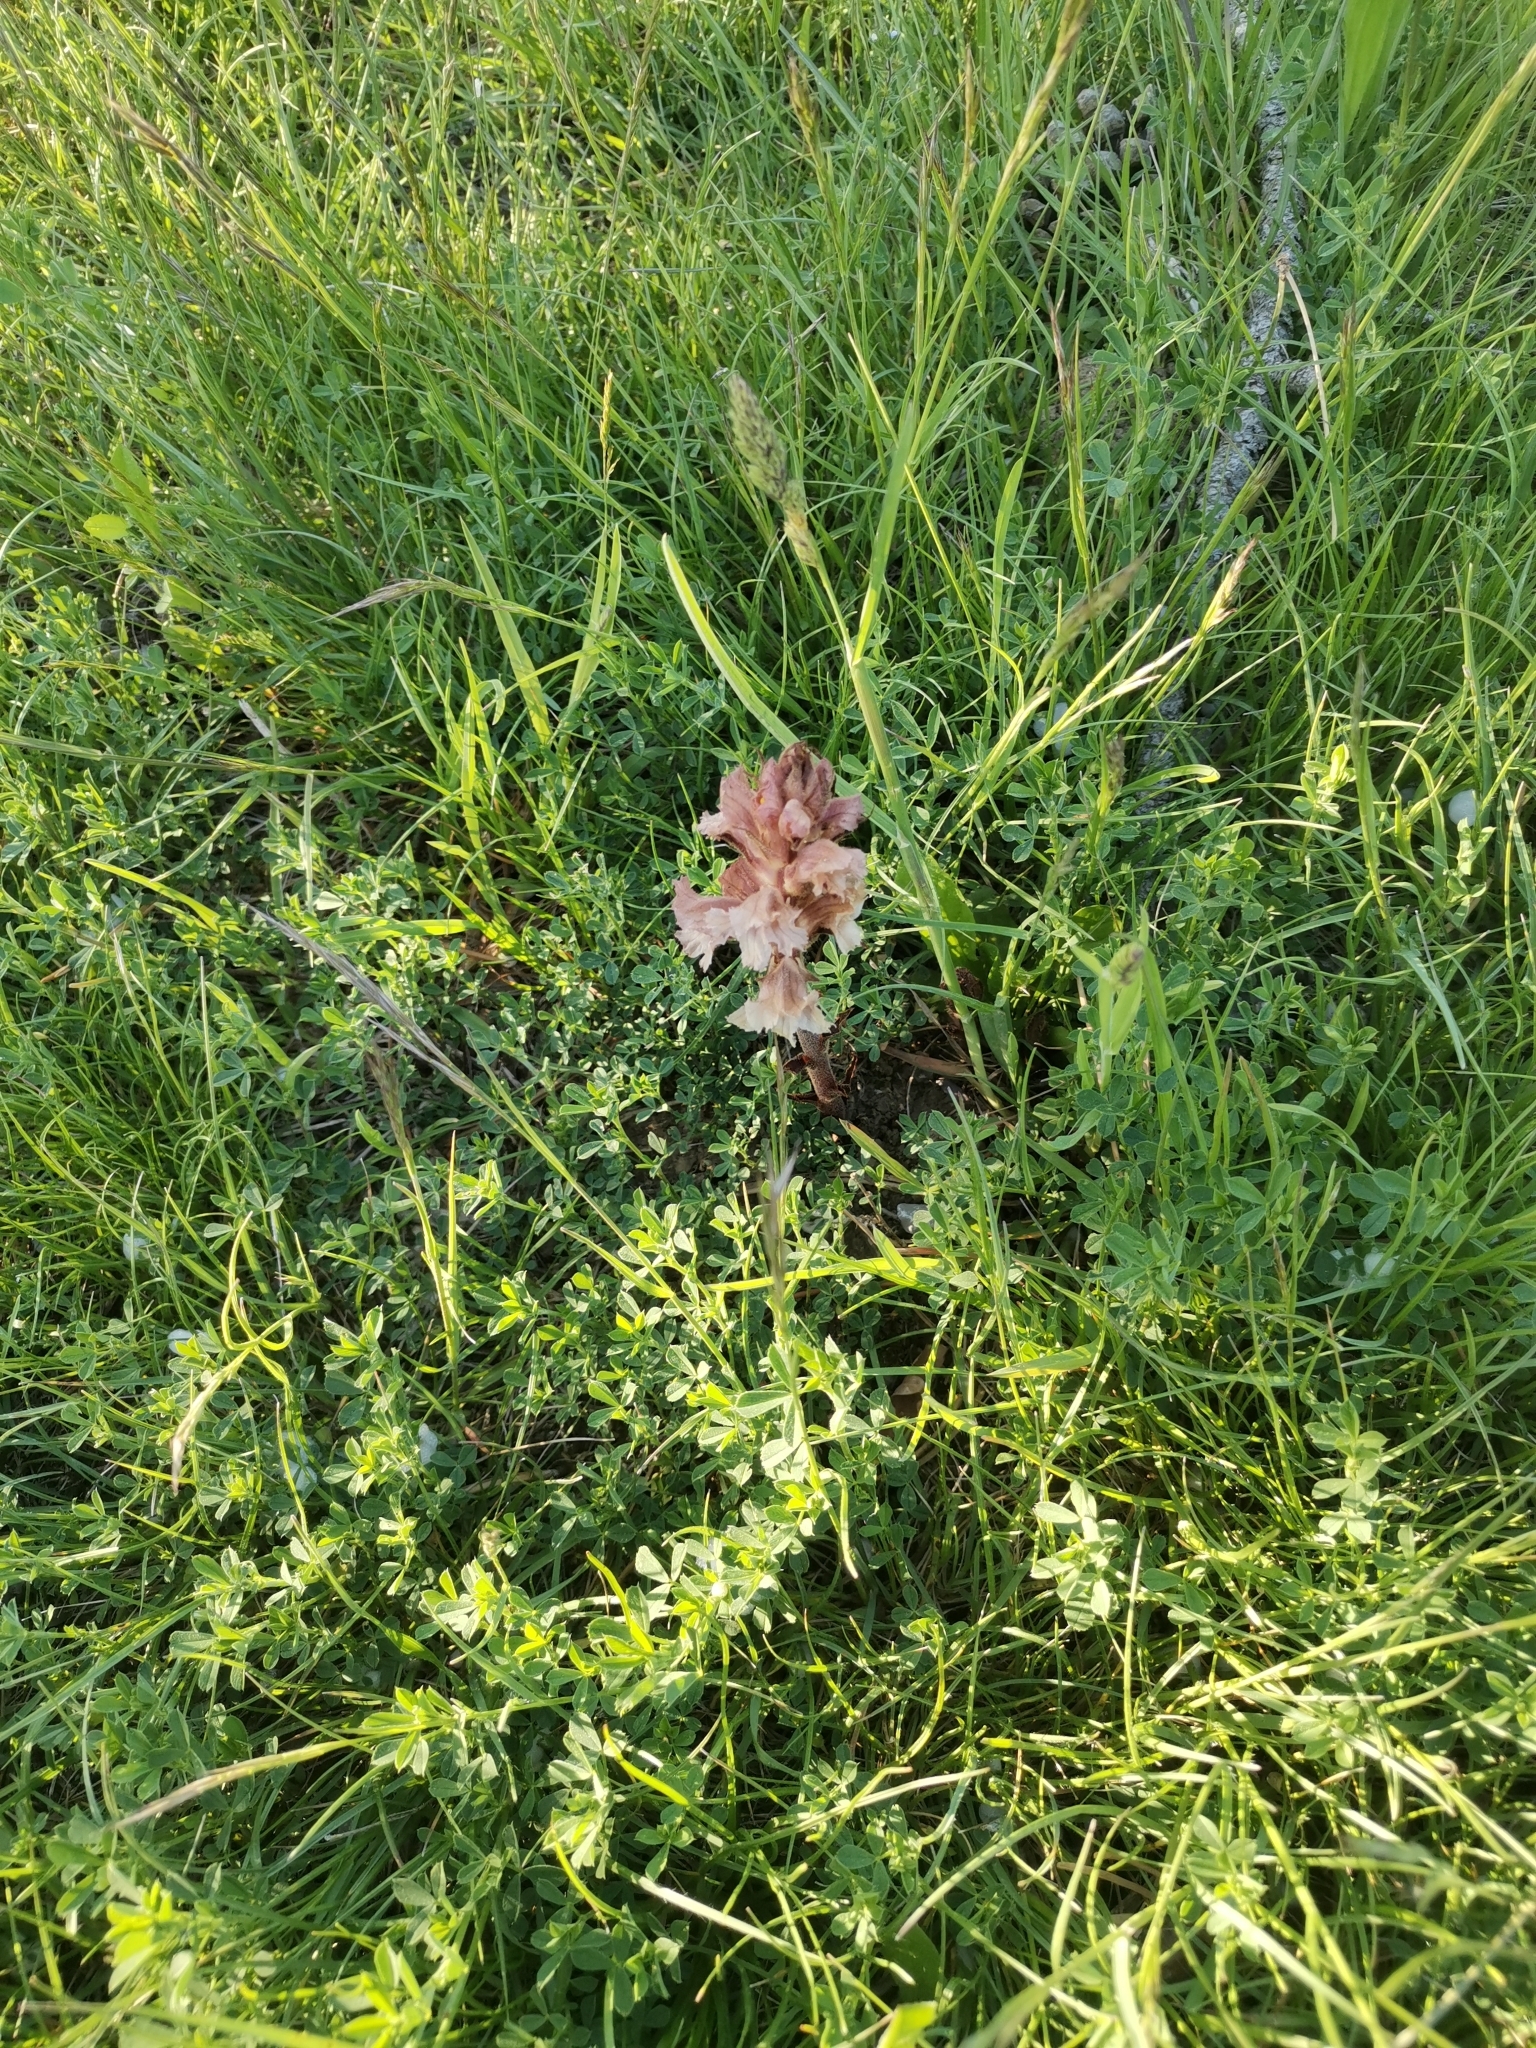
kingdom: Plantae
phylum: Tracheophyta
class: Magnoliopsida
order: Lamiales
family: Orobanchaceae
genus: Orobanche
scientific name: Orobanche lutea
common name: Yellow broomrape
